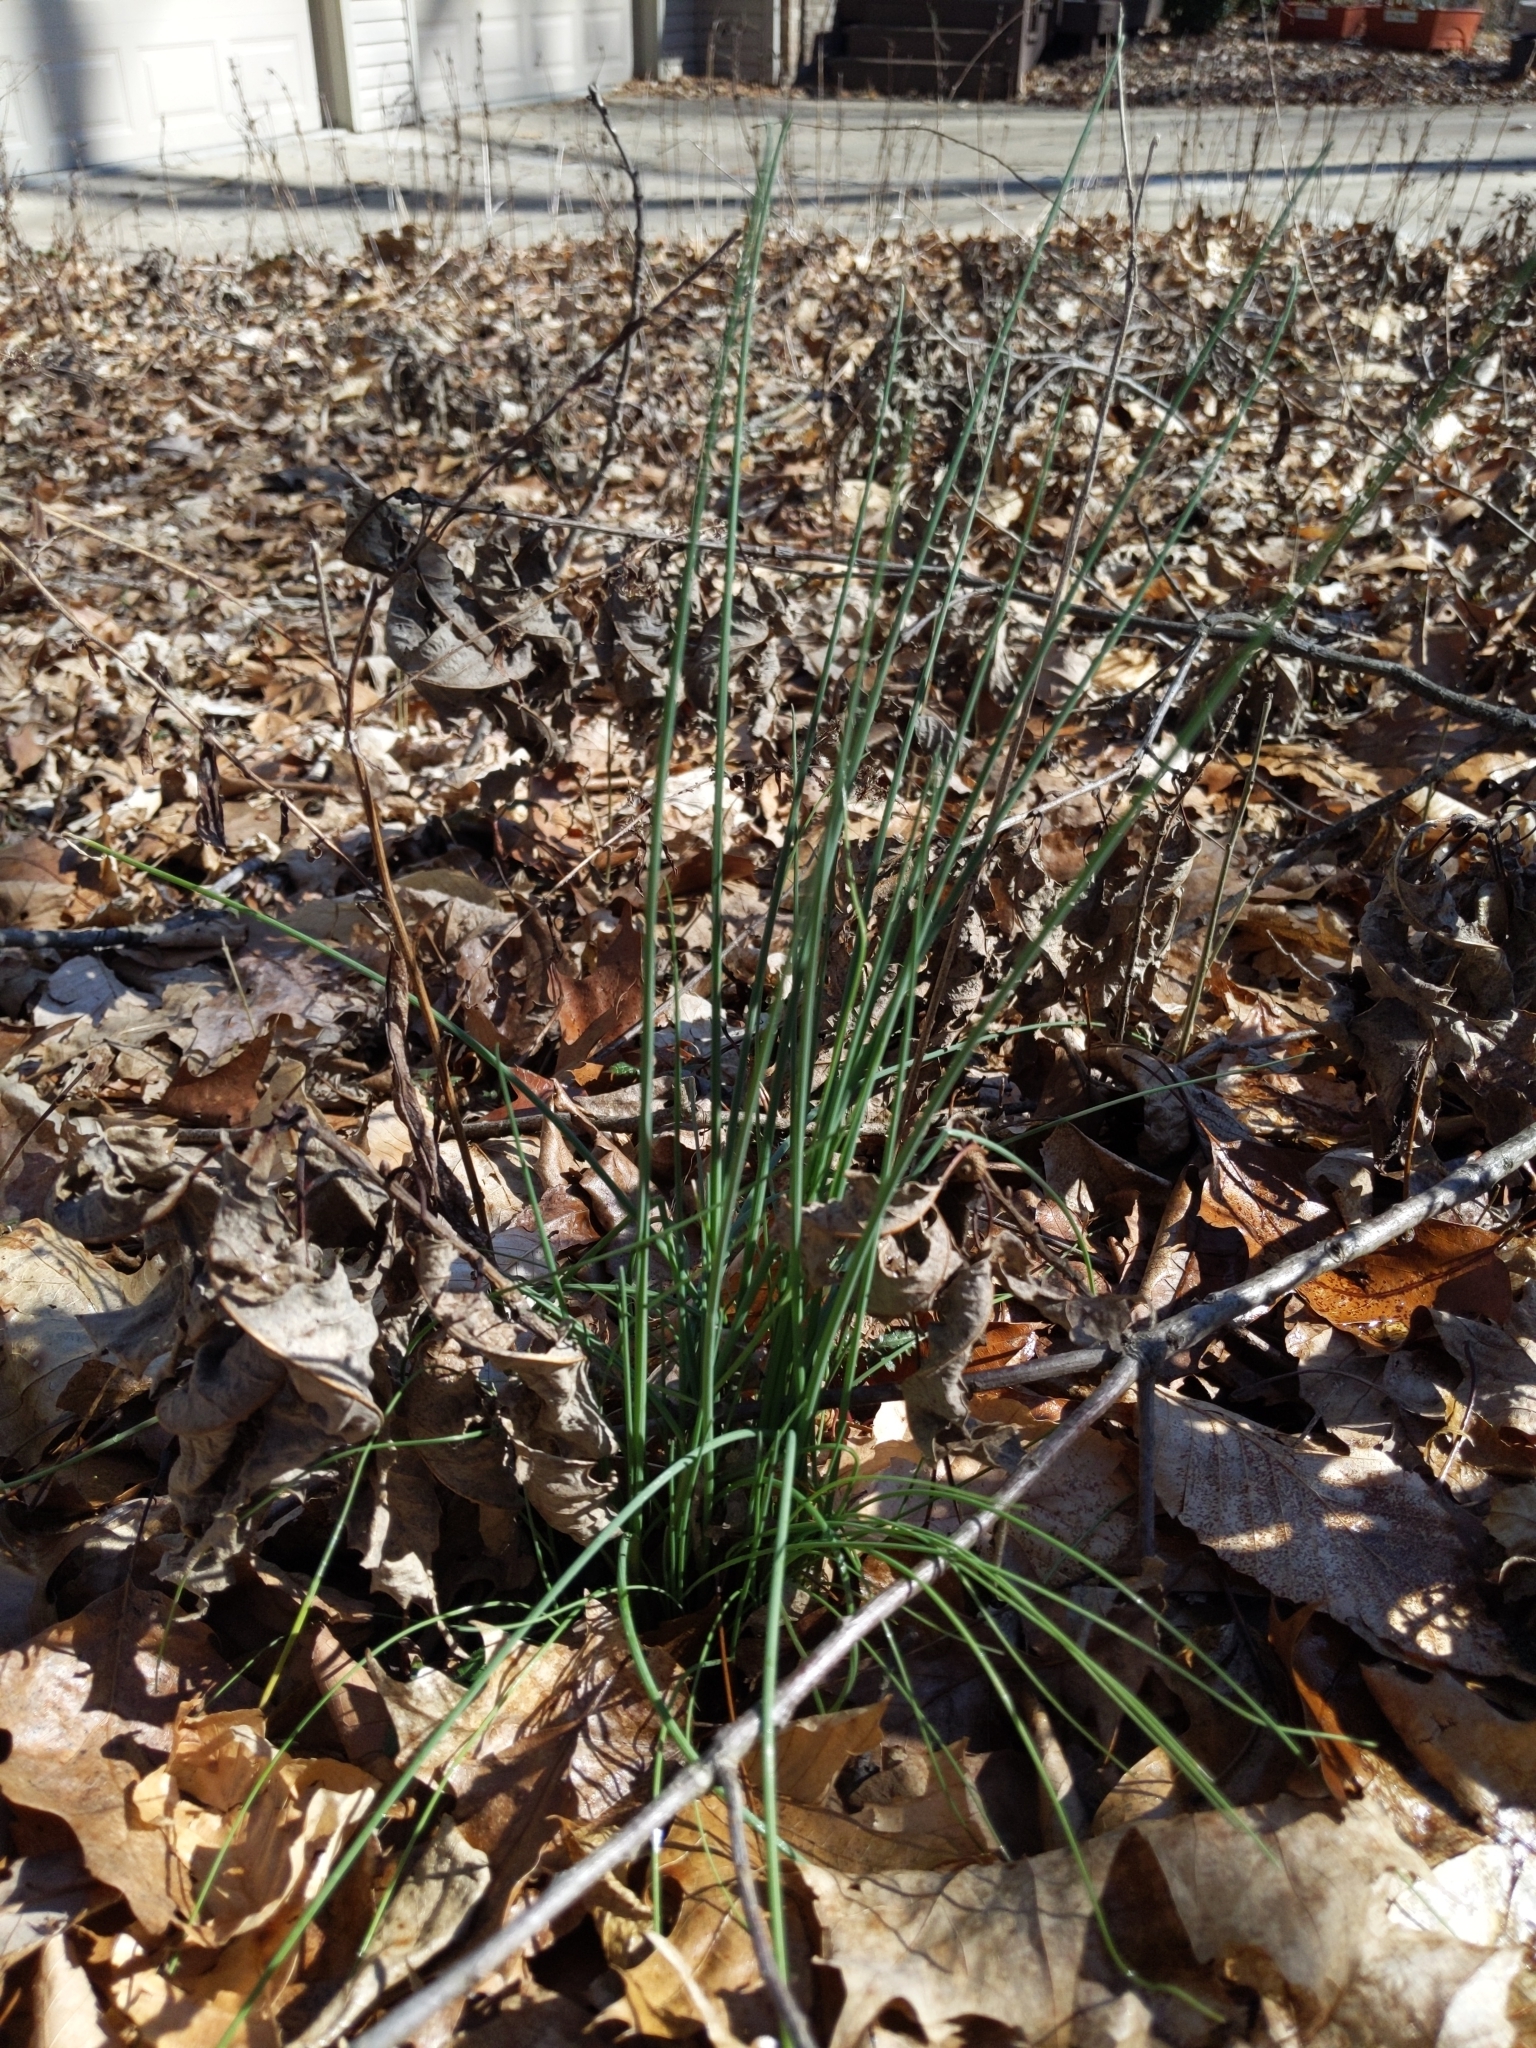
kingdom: Plantae
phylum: Tracheophyta
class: Liliopsida
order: Asparagales
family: Amaryllidaceae
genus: Allium
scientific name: Allium vineale
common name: Crow garlic
